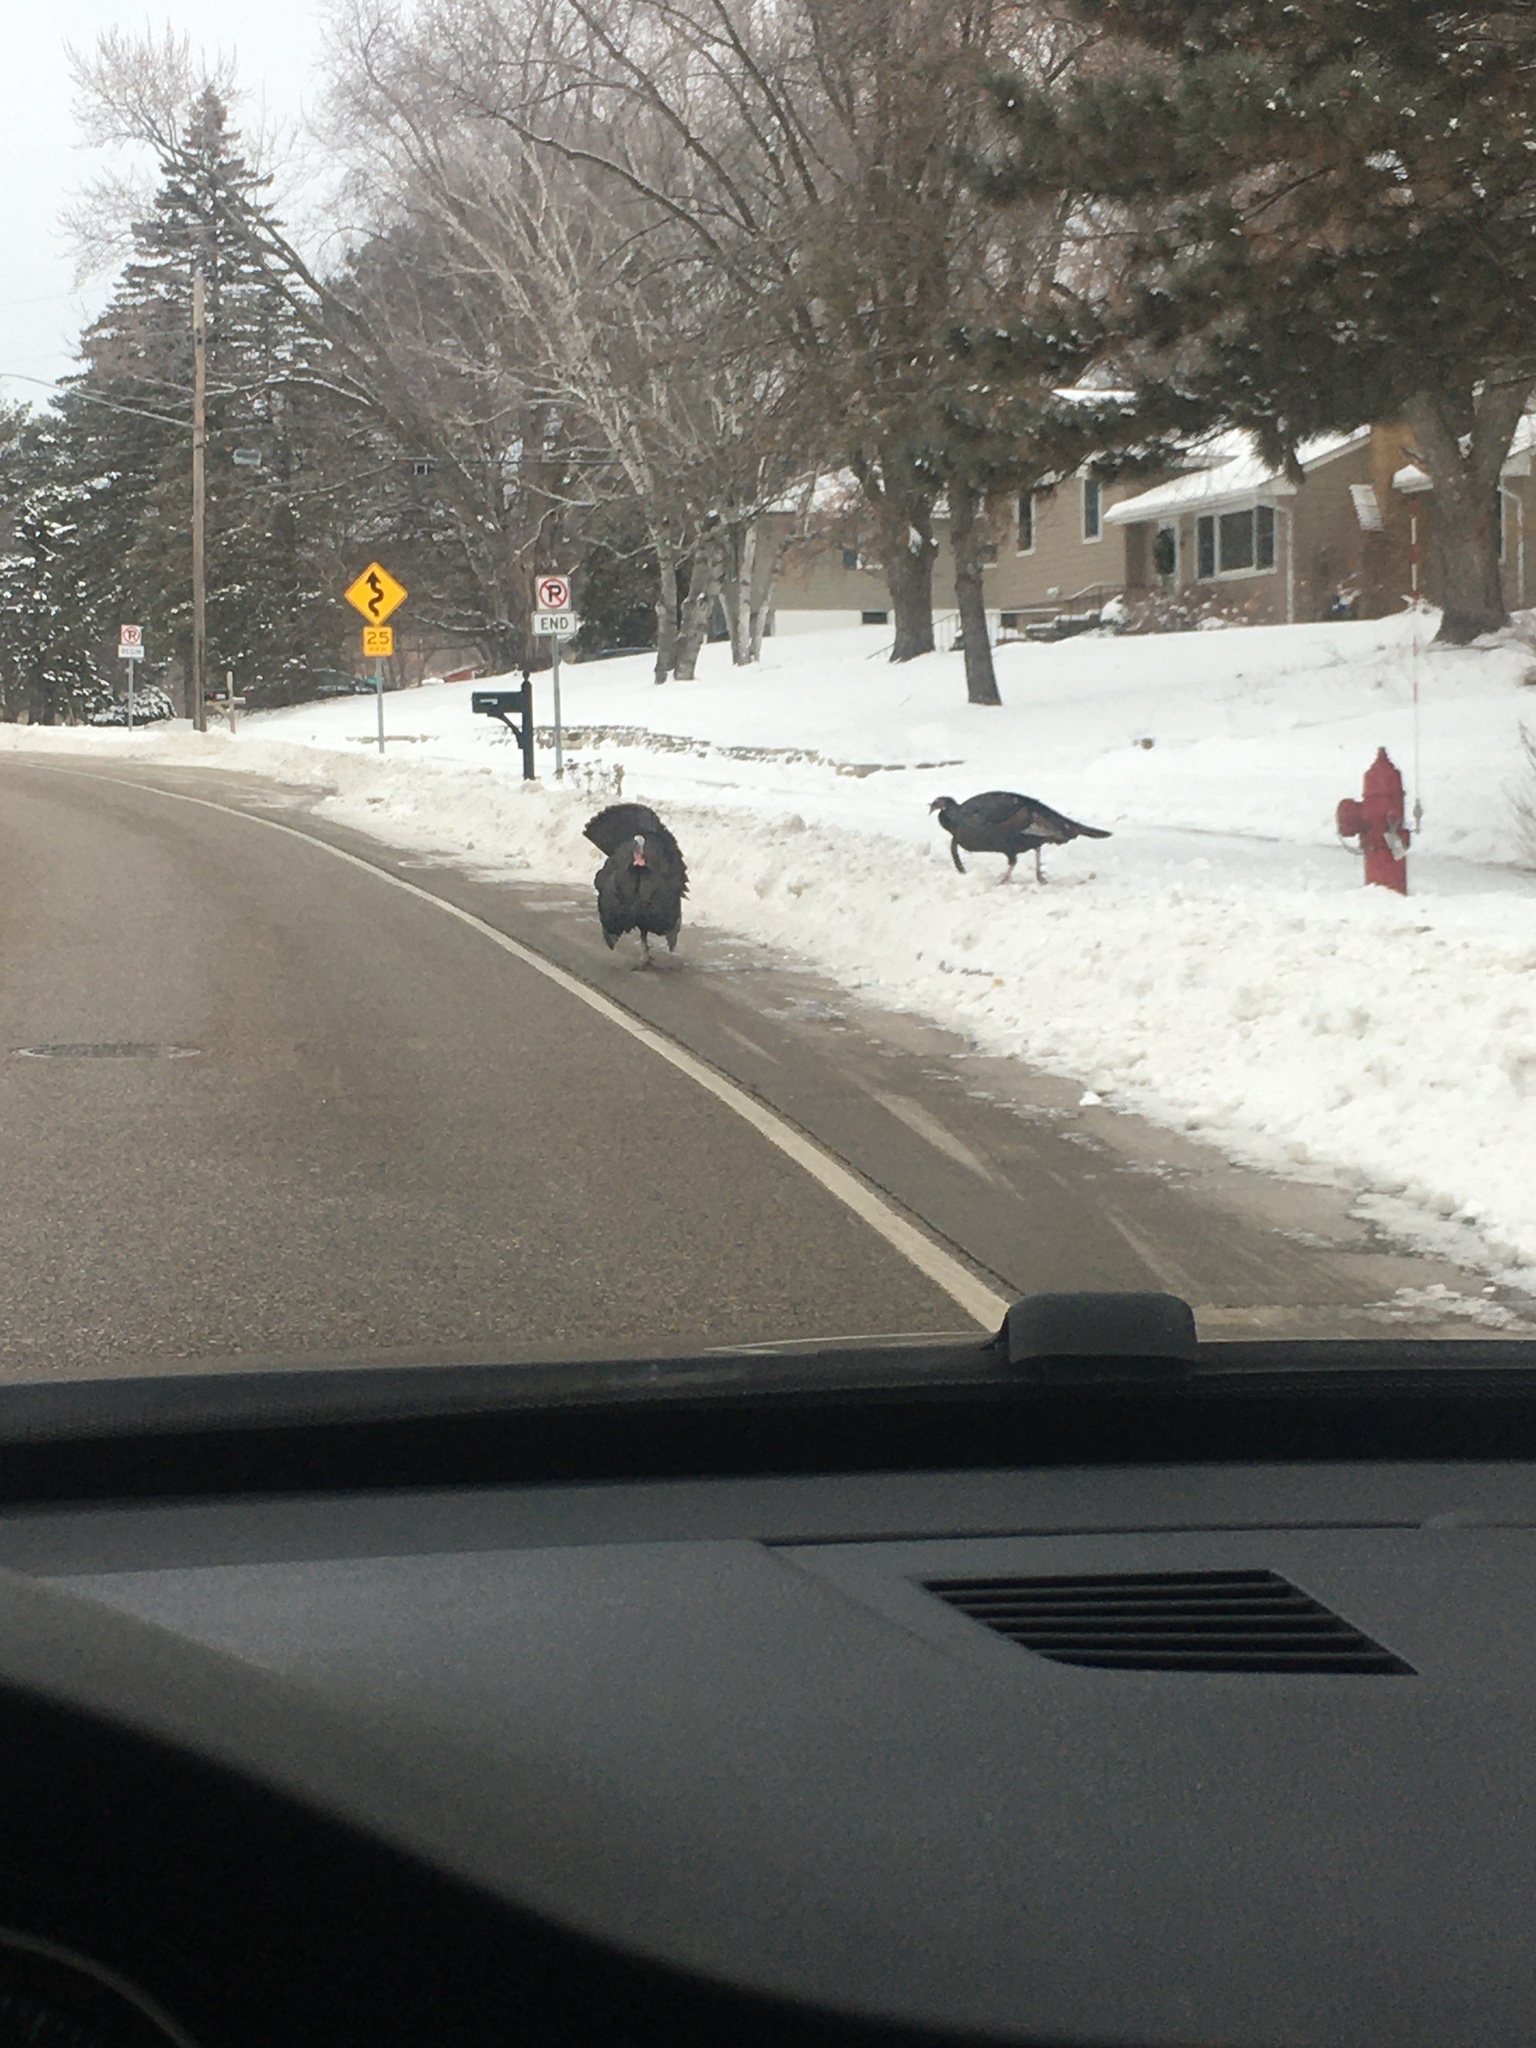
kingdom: Animalia
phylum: Chordata
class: Aves
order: Galliformes
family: Phasianidae
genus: Meleagris
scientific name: Meleagris gallopavo
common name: Wild turkey
